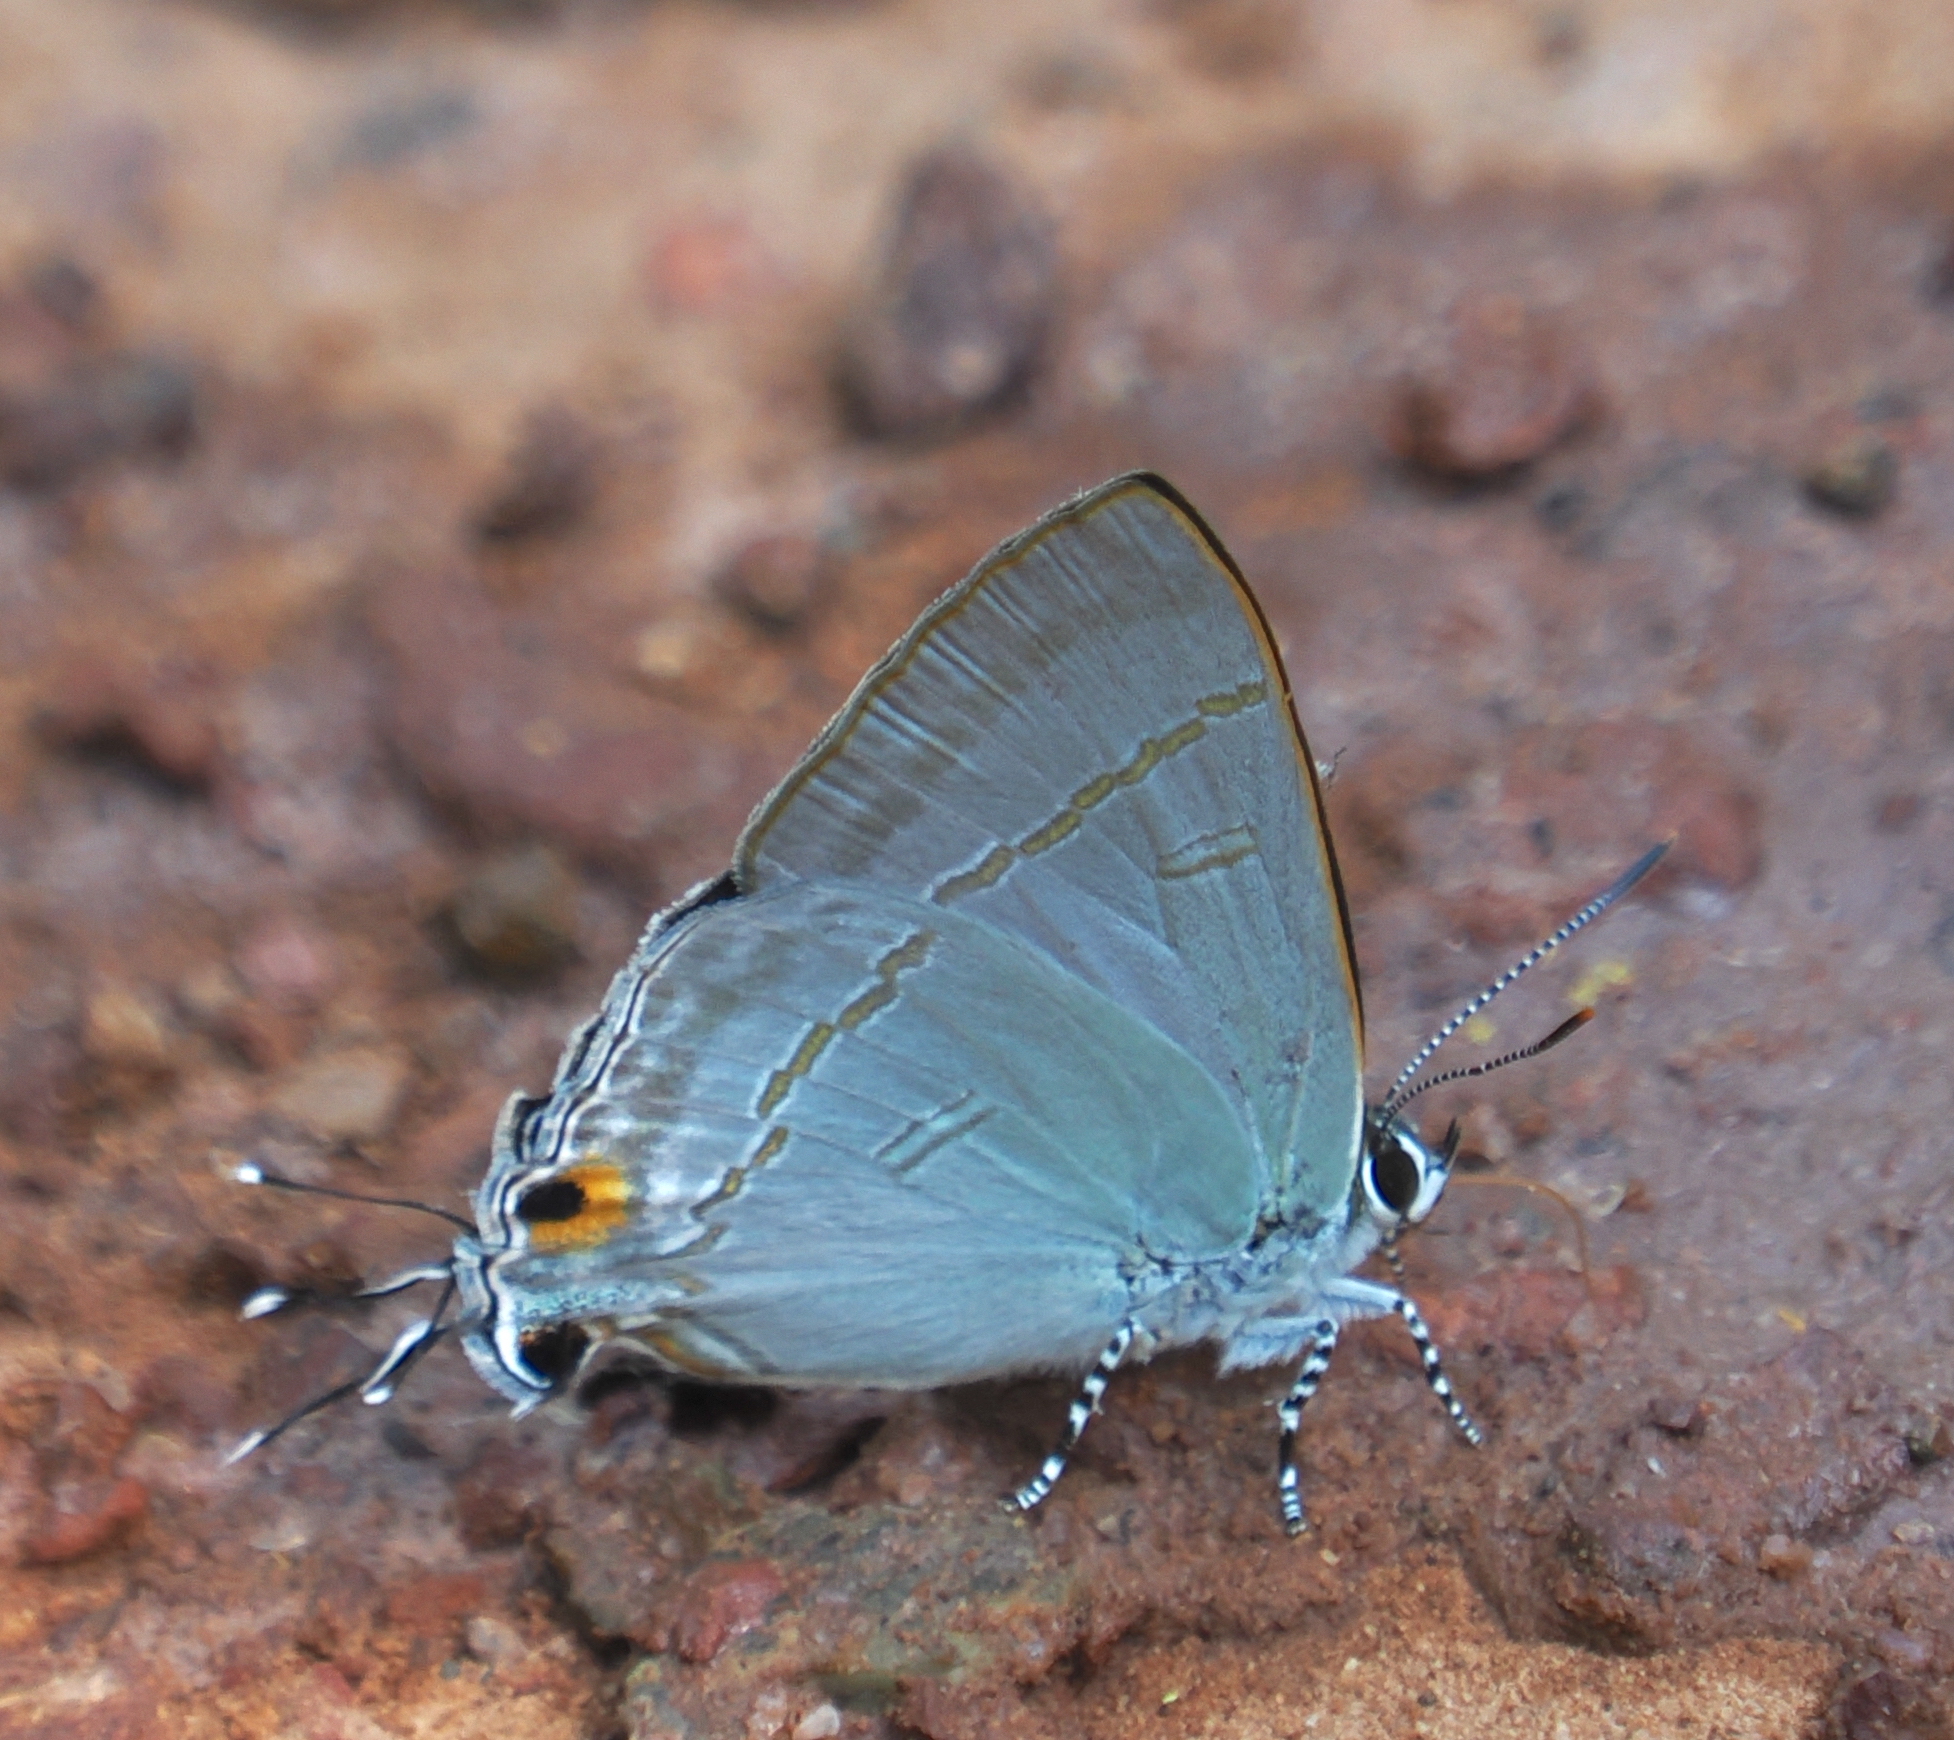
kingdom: Animalia
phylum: Arthropoda
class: Insecta
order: Lepidoptera
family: Lycaenidae
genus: Hypolycaena
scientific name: Hypolycaena erylus
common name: Common tit
